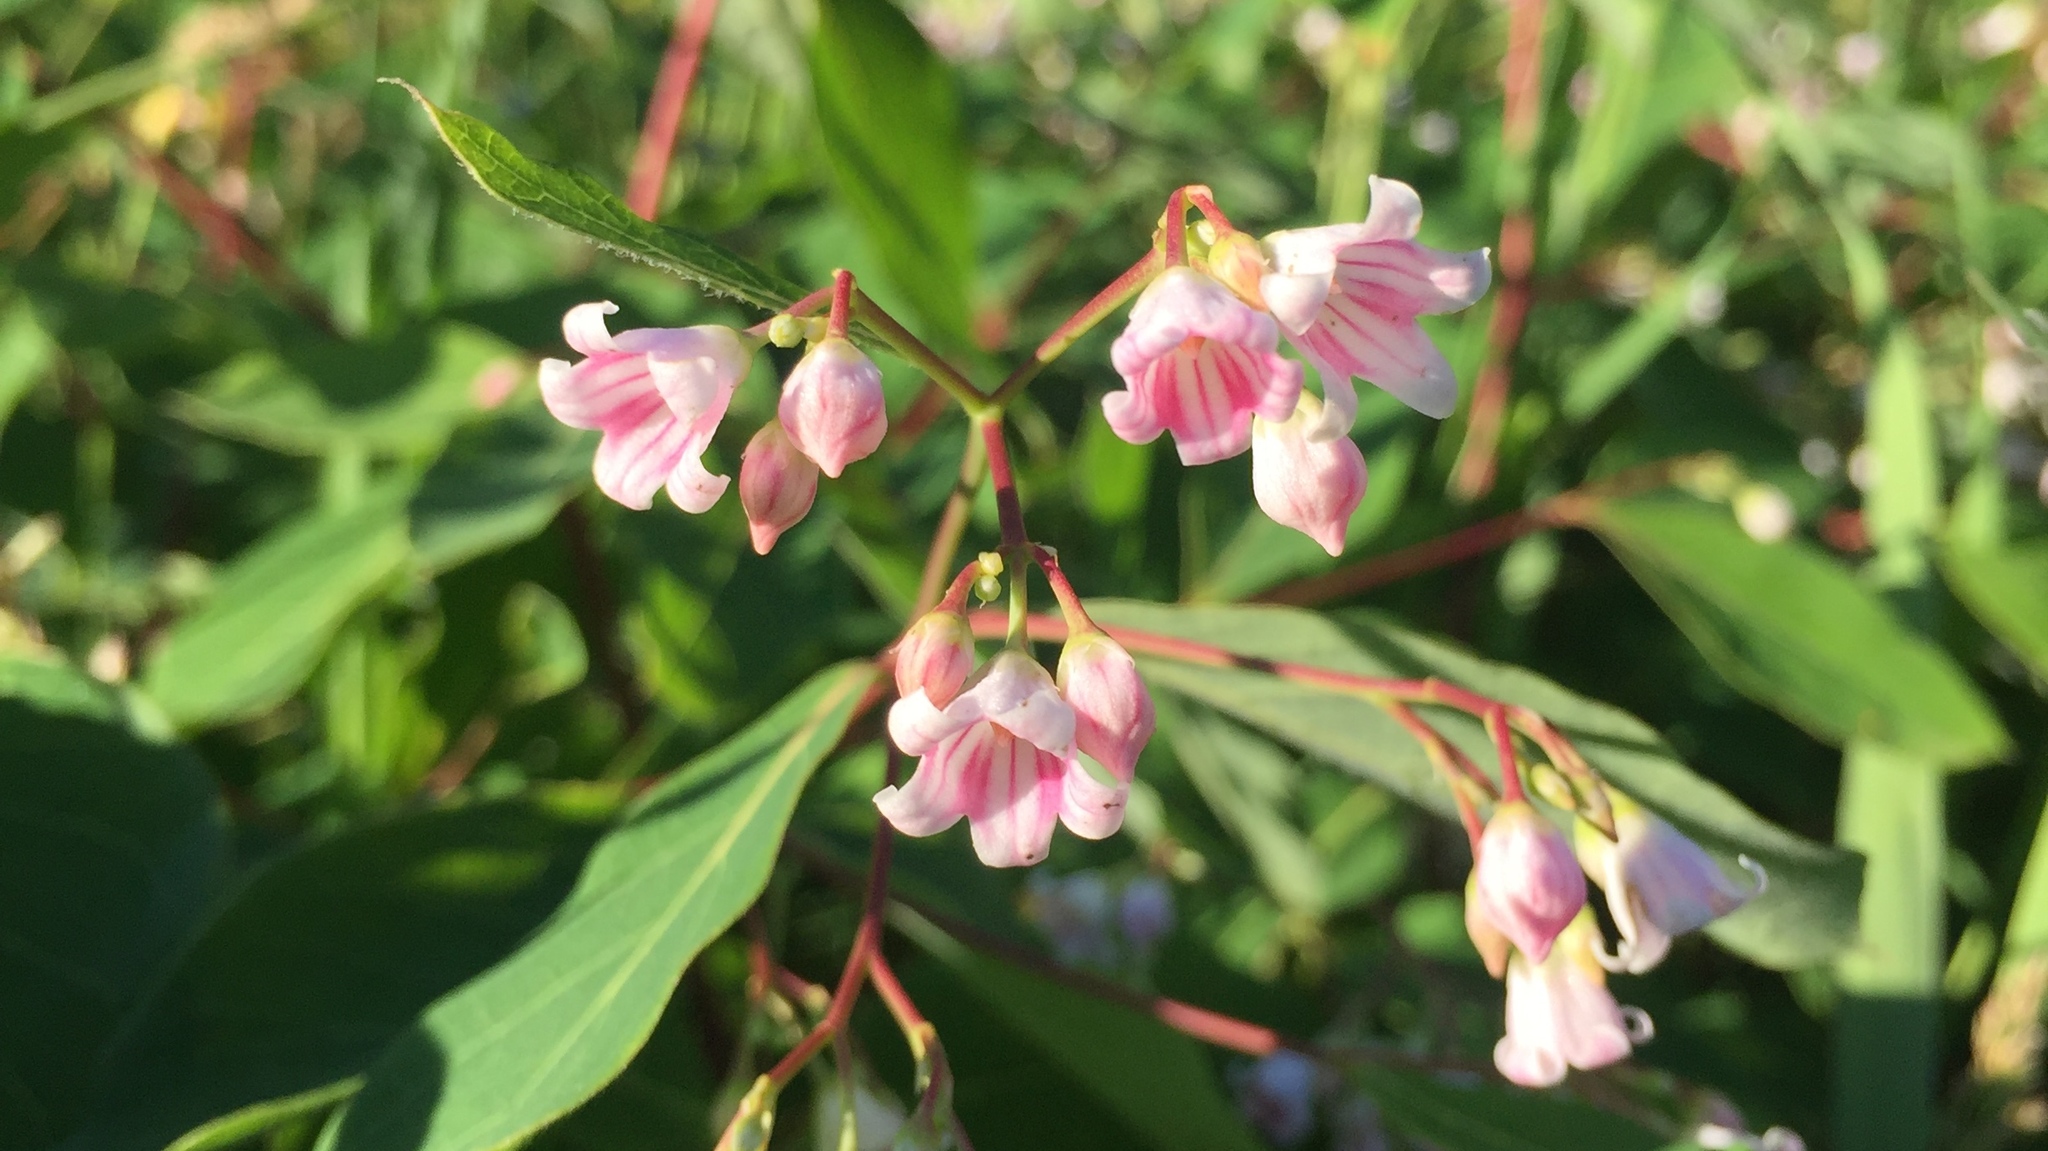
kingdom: Plantae
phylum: Tracheophyta
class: Magnoliopsida
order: Gentianales
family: Apocynaceae
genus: Apocynum
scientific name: Apocynum androsaemifolium
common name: Spreading dogbane
